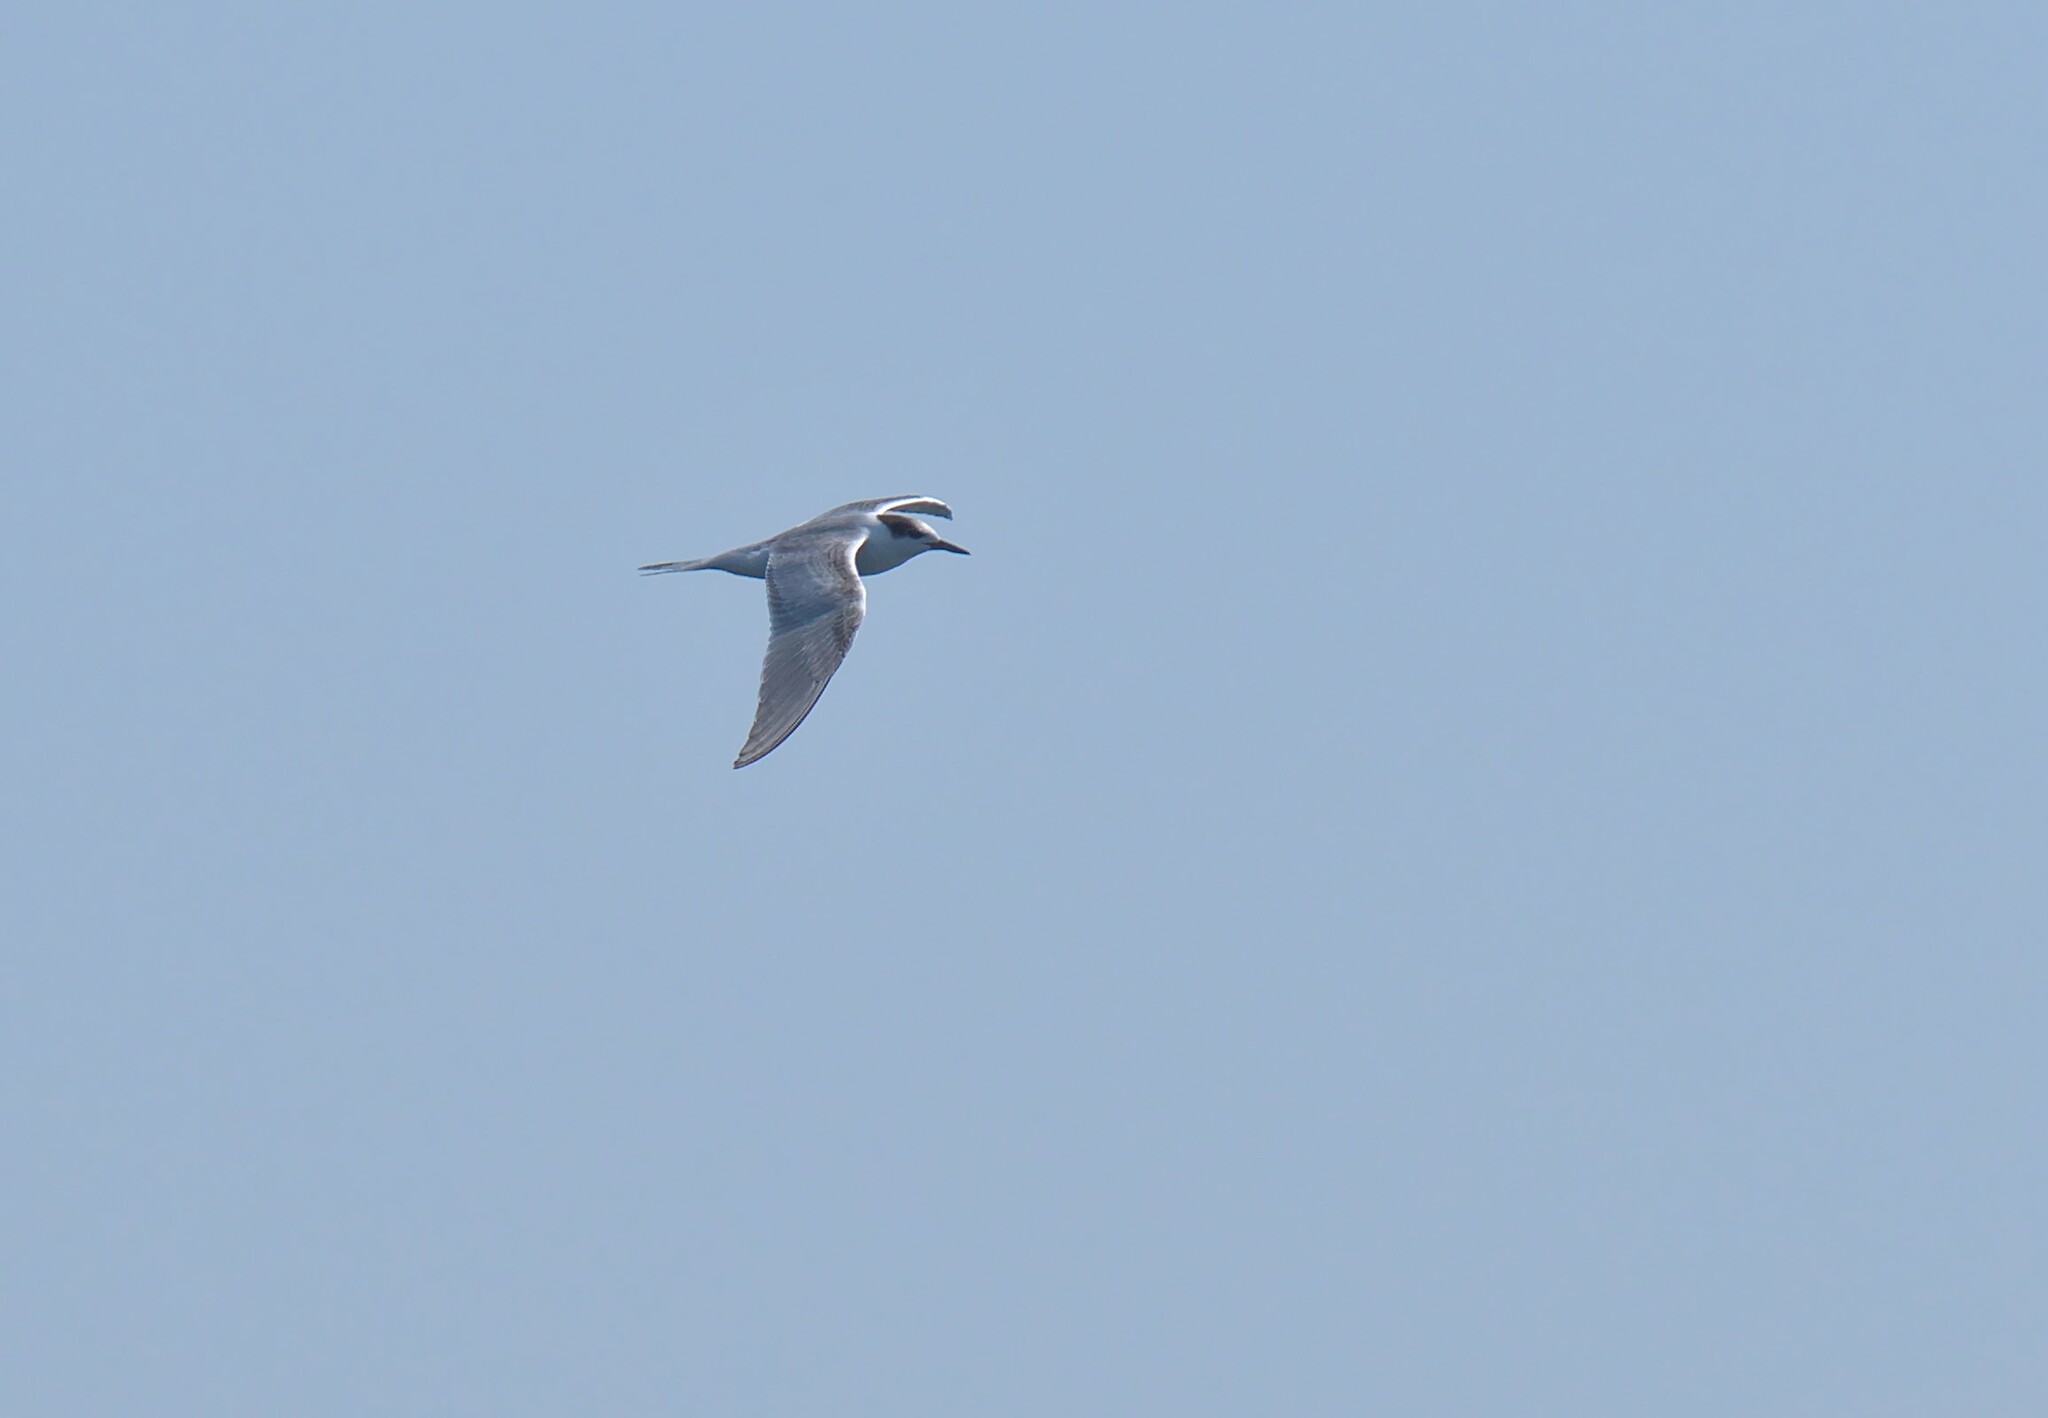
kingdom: Animalia
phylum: Chordata
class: Aves
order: Charadriiformes
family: Laridae
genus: Sterna
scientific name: Sterna hirundo
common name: Common tern
